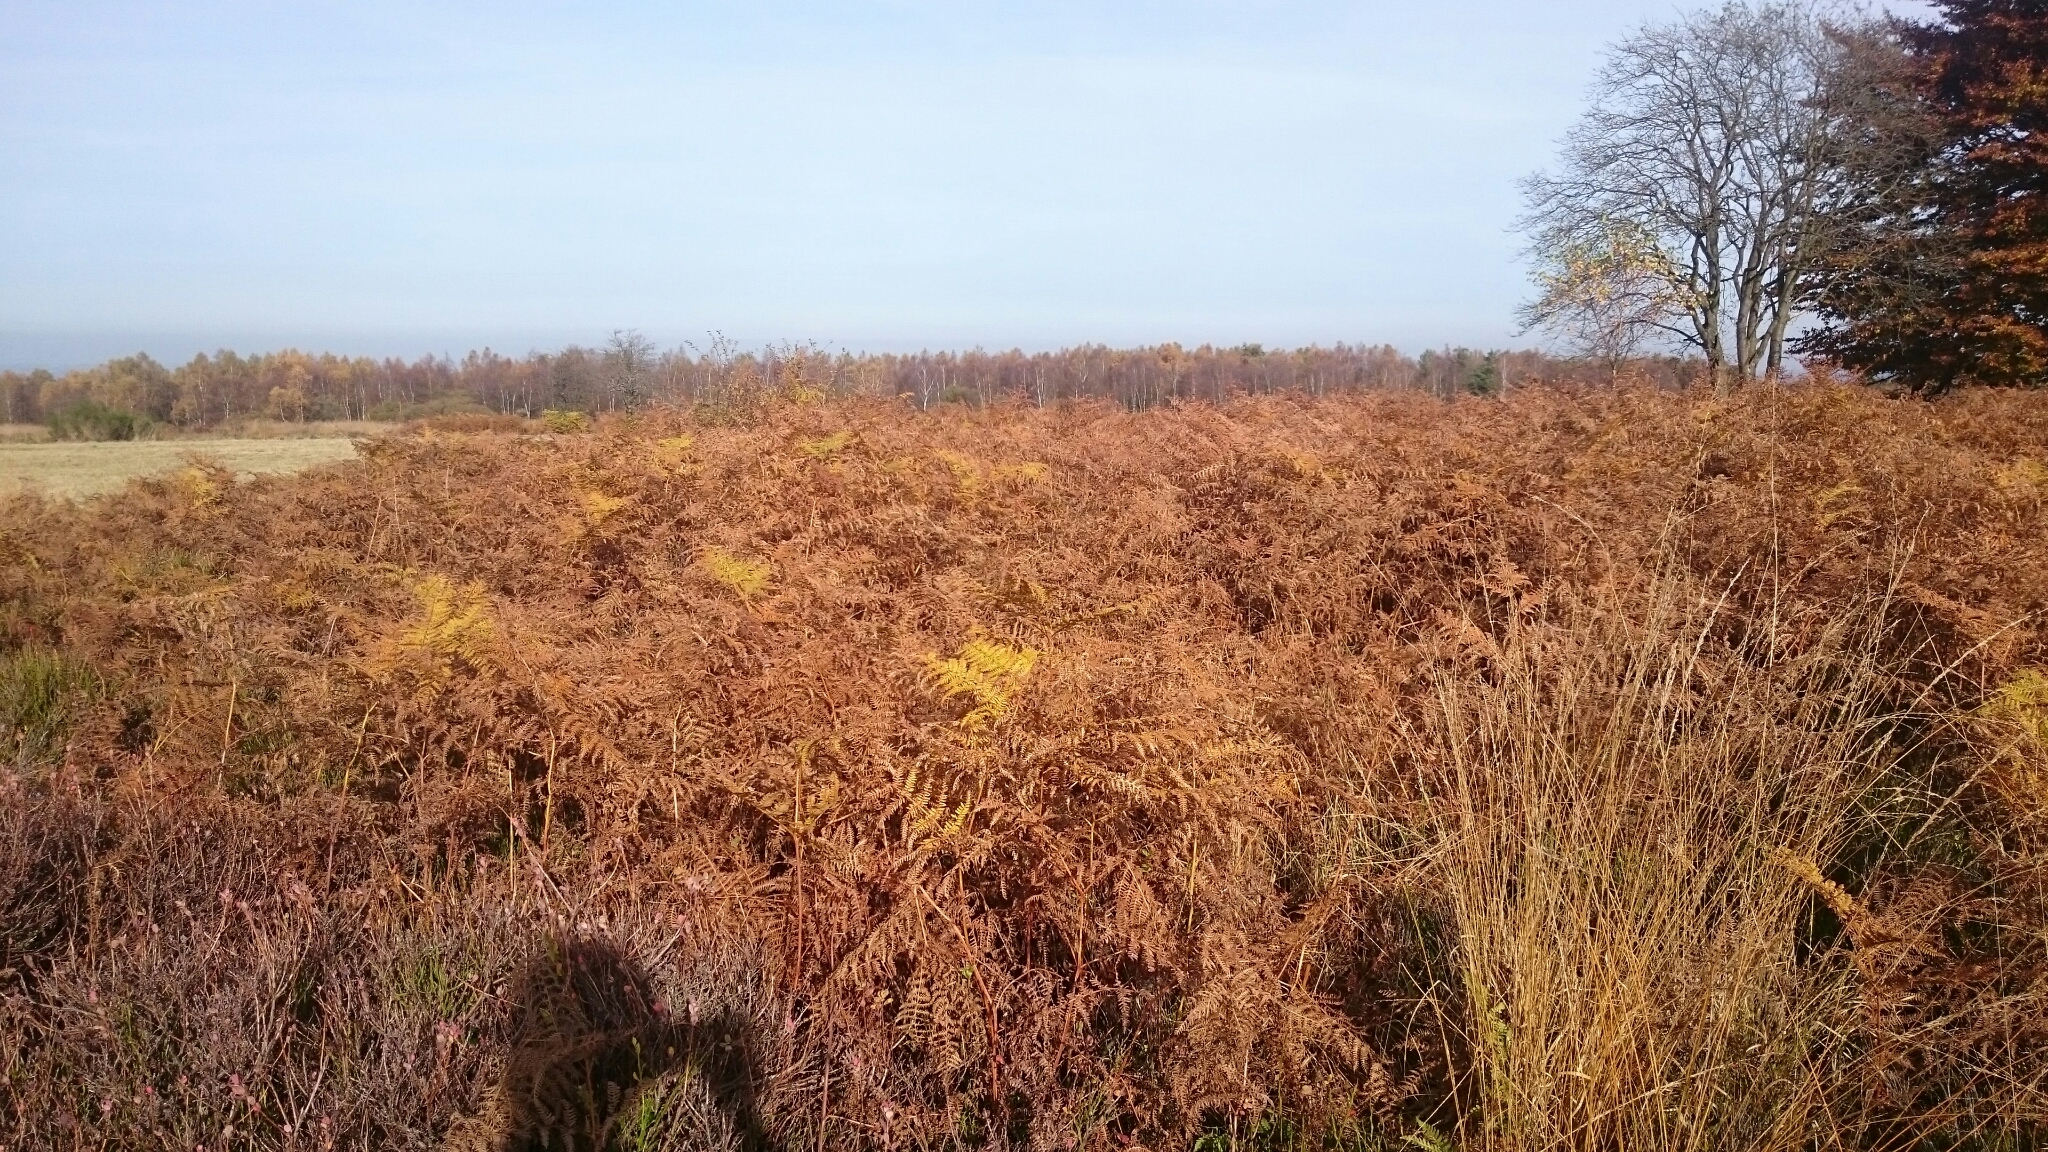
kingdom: Plantae
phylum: Tracheophyta
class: Polypodiopsida
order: Polypodiales
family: Dennstaedtiaceae
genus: Pteridium
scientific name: Pteridium aquilinum
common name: Bracken
